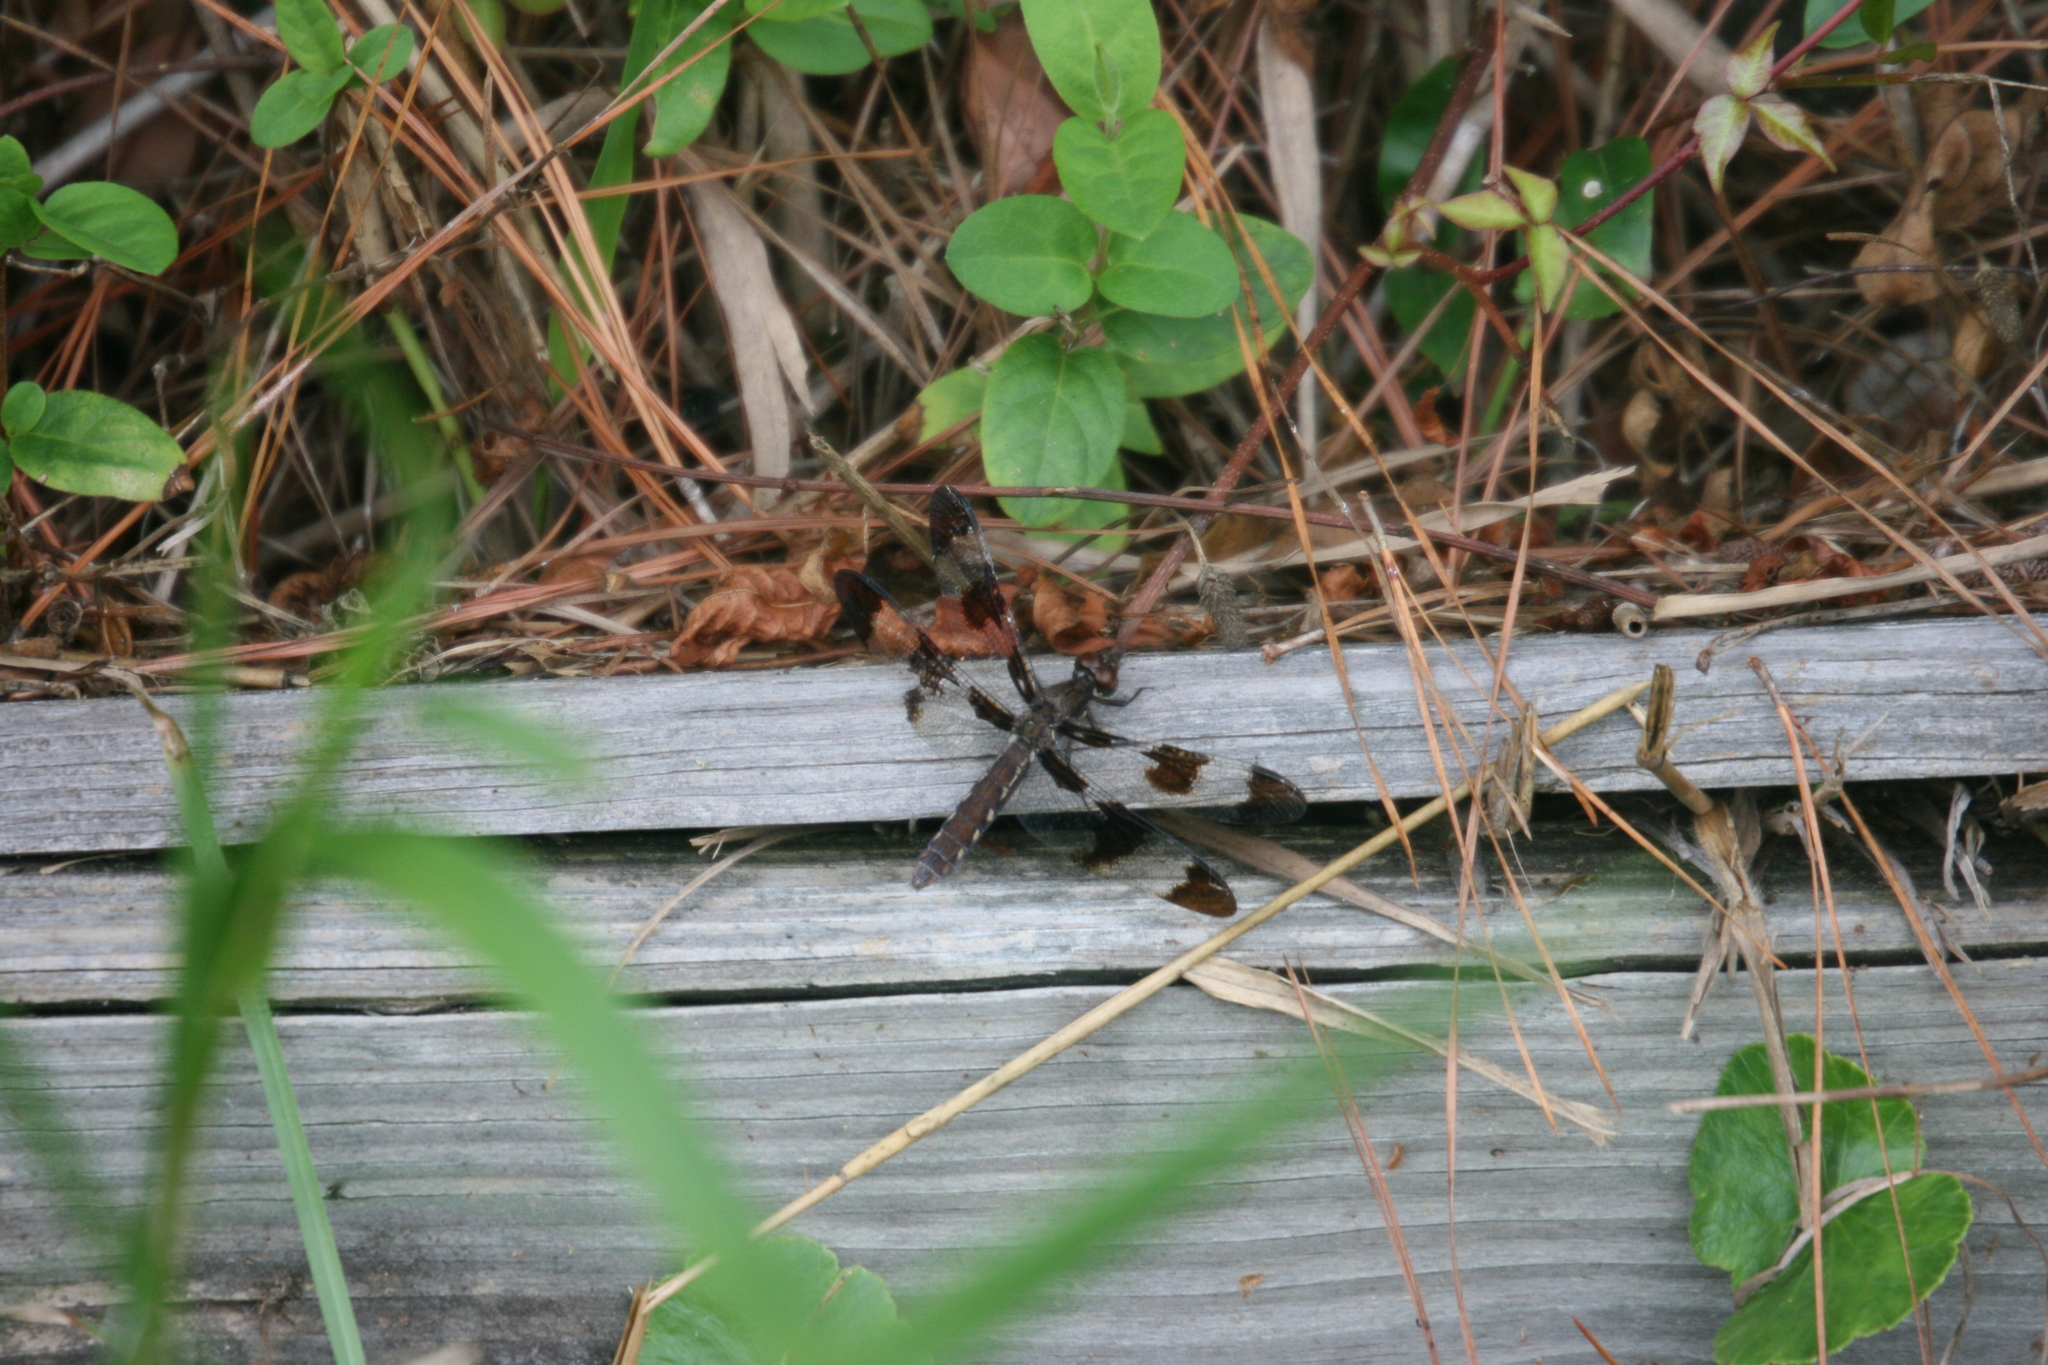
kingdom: Animalia
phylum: Arthropoda
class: Insecta
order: Odonata
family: Libellulidae
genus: Plathemis
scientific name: Plathemis lydia
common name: Common whitetail
